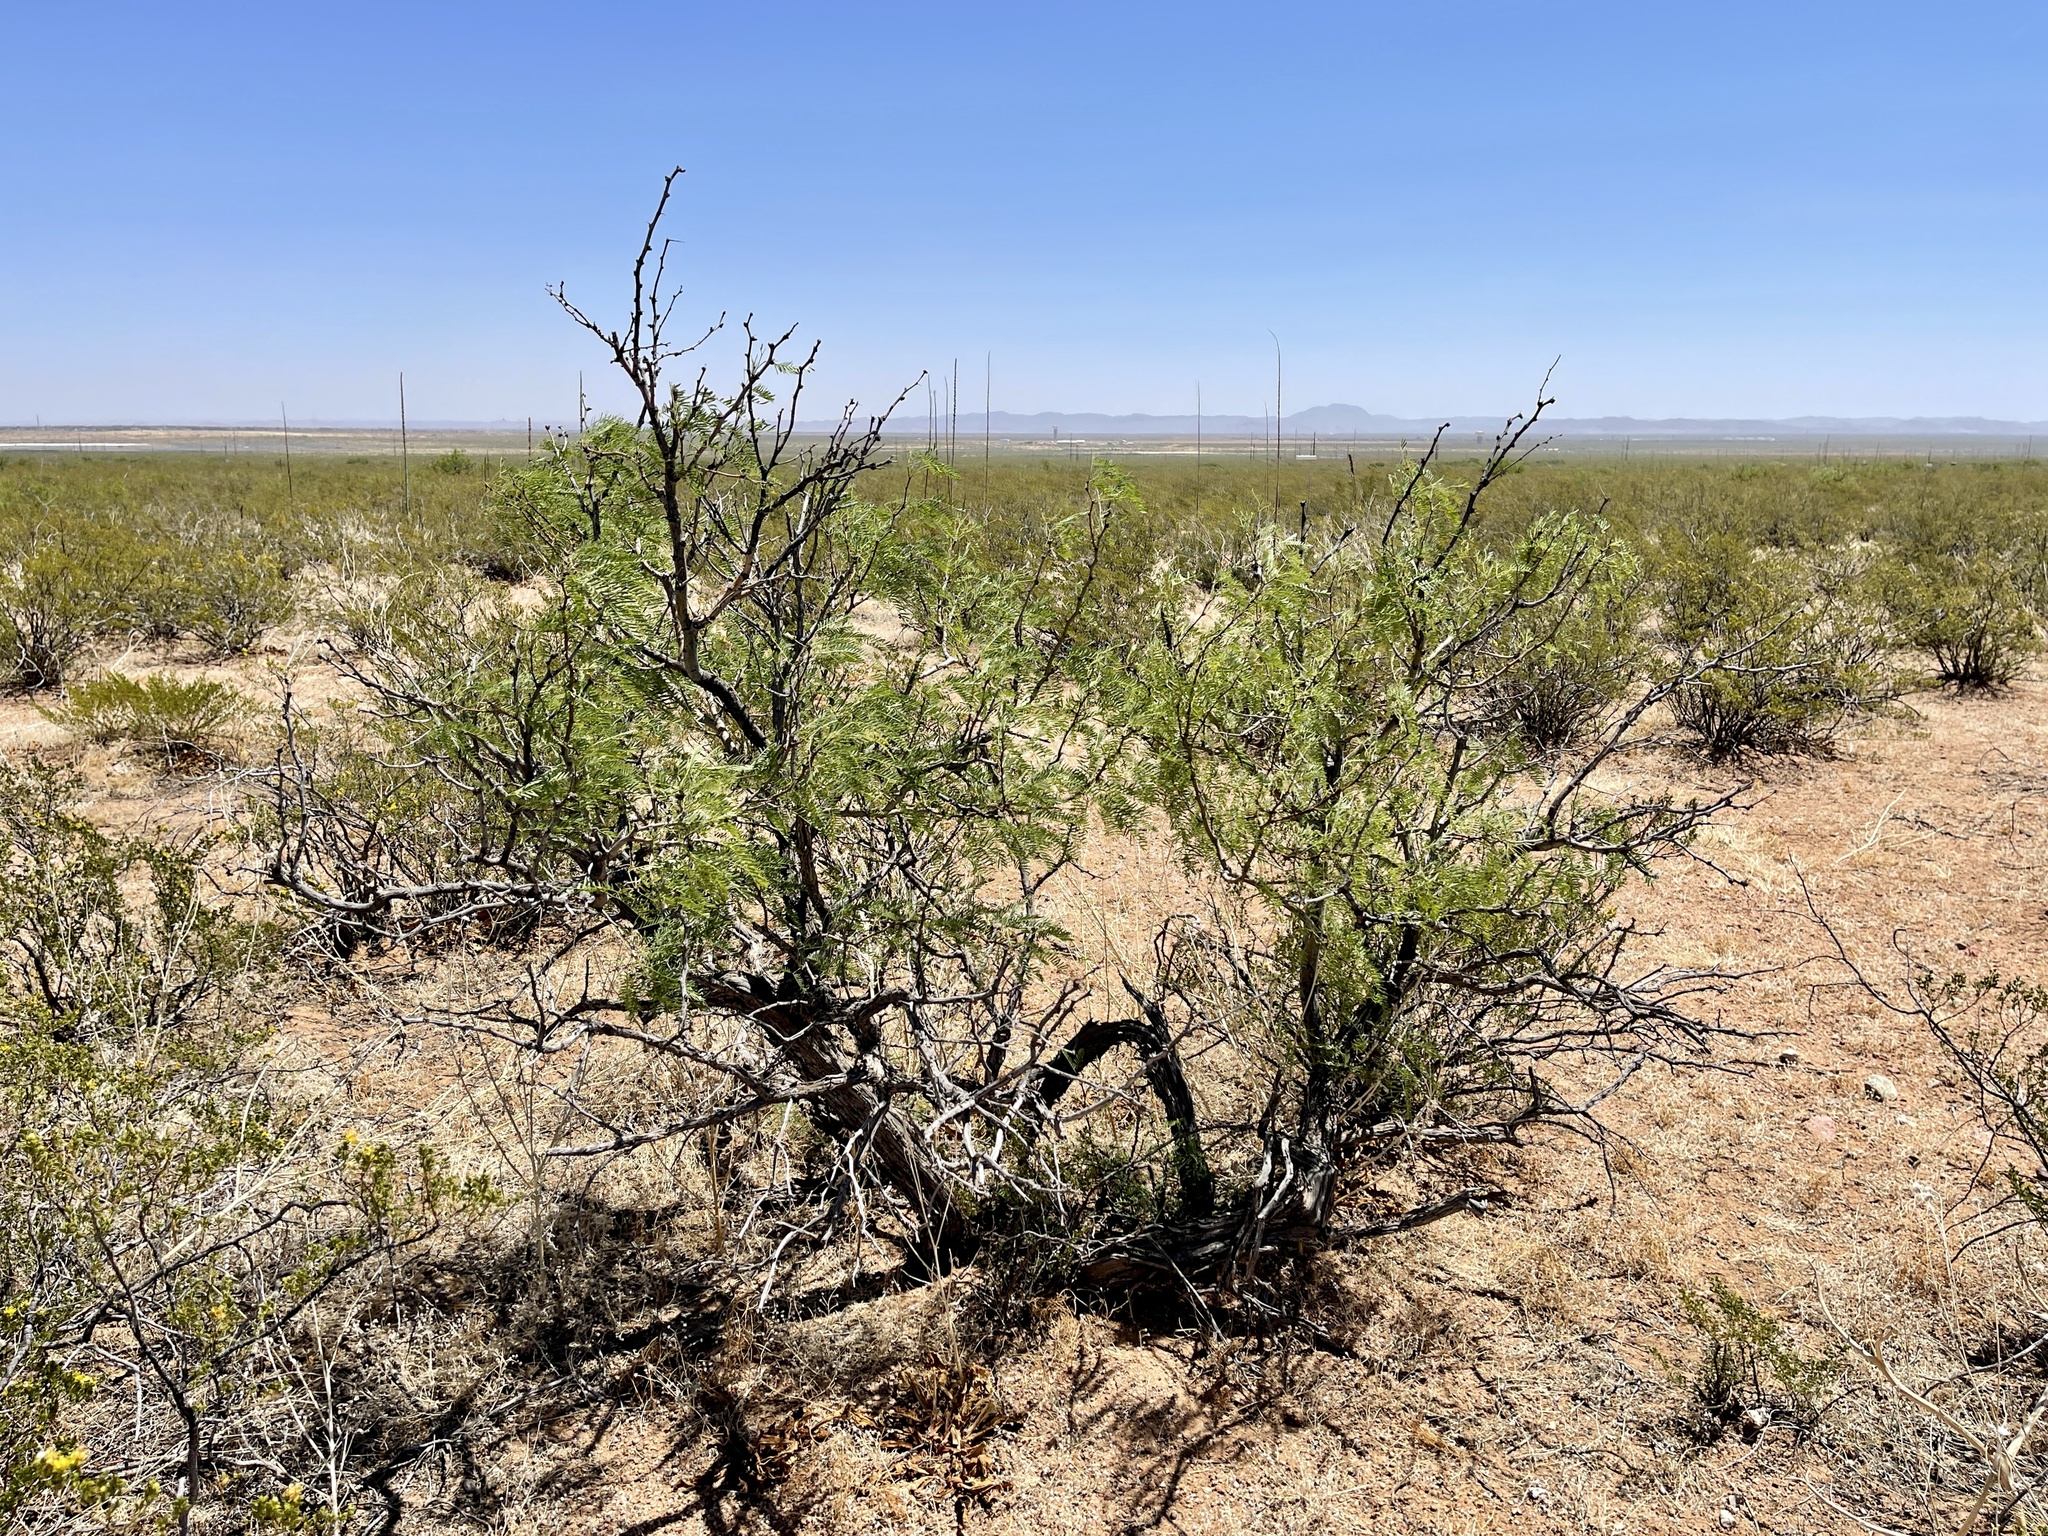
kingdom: Plantae
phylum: Tracheophyta
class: Magnoliopsida
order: Fabales
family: Fabaceae
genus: Prosopis
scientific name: Prosopis pubescens
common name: Screw-bean
